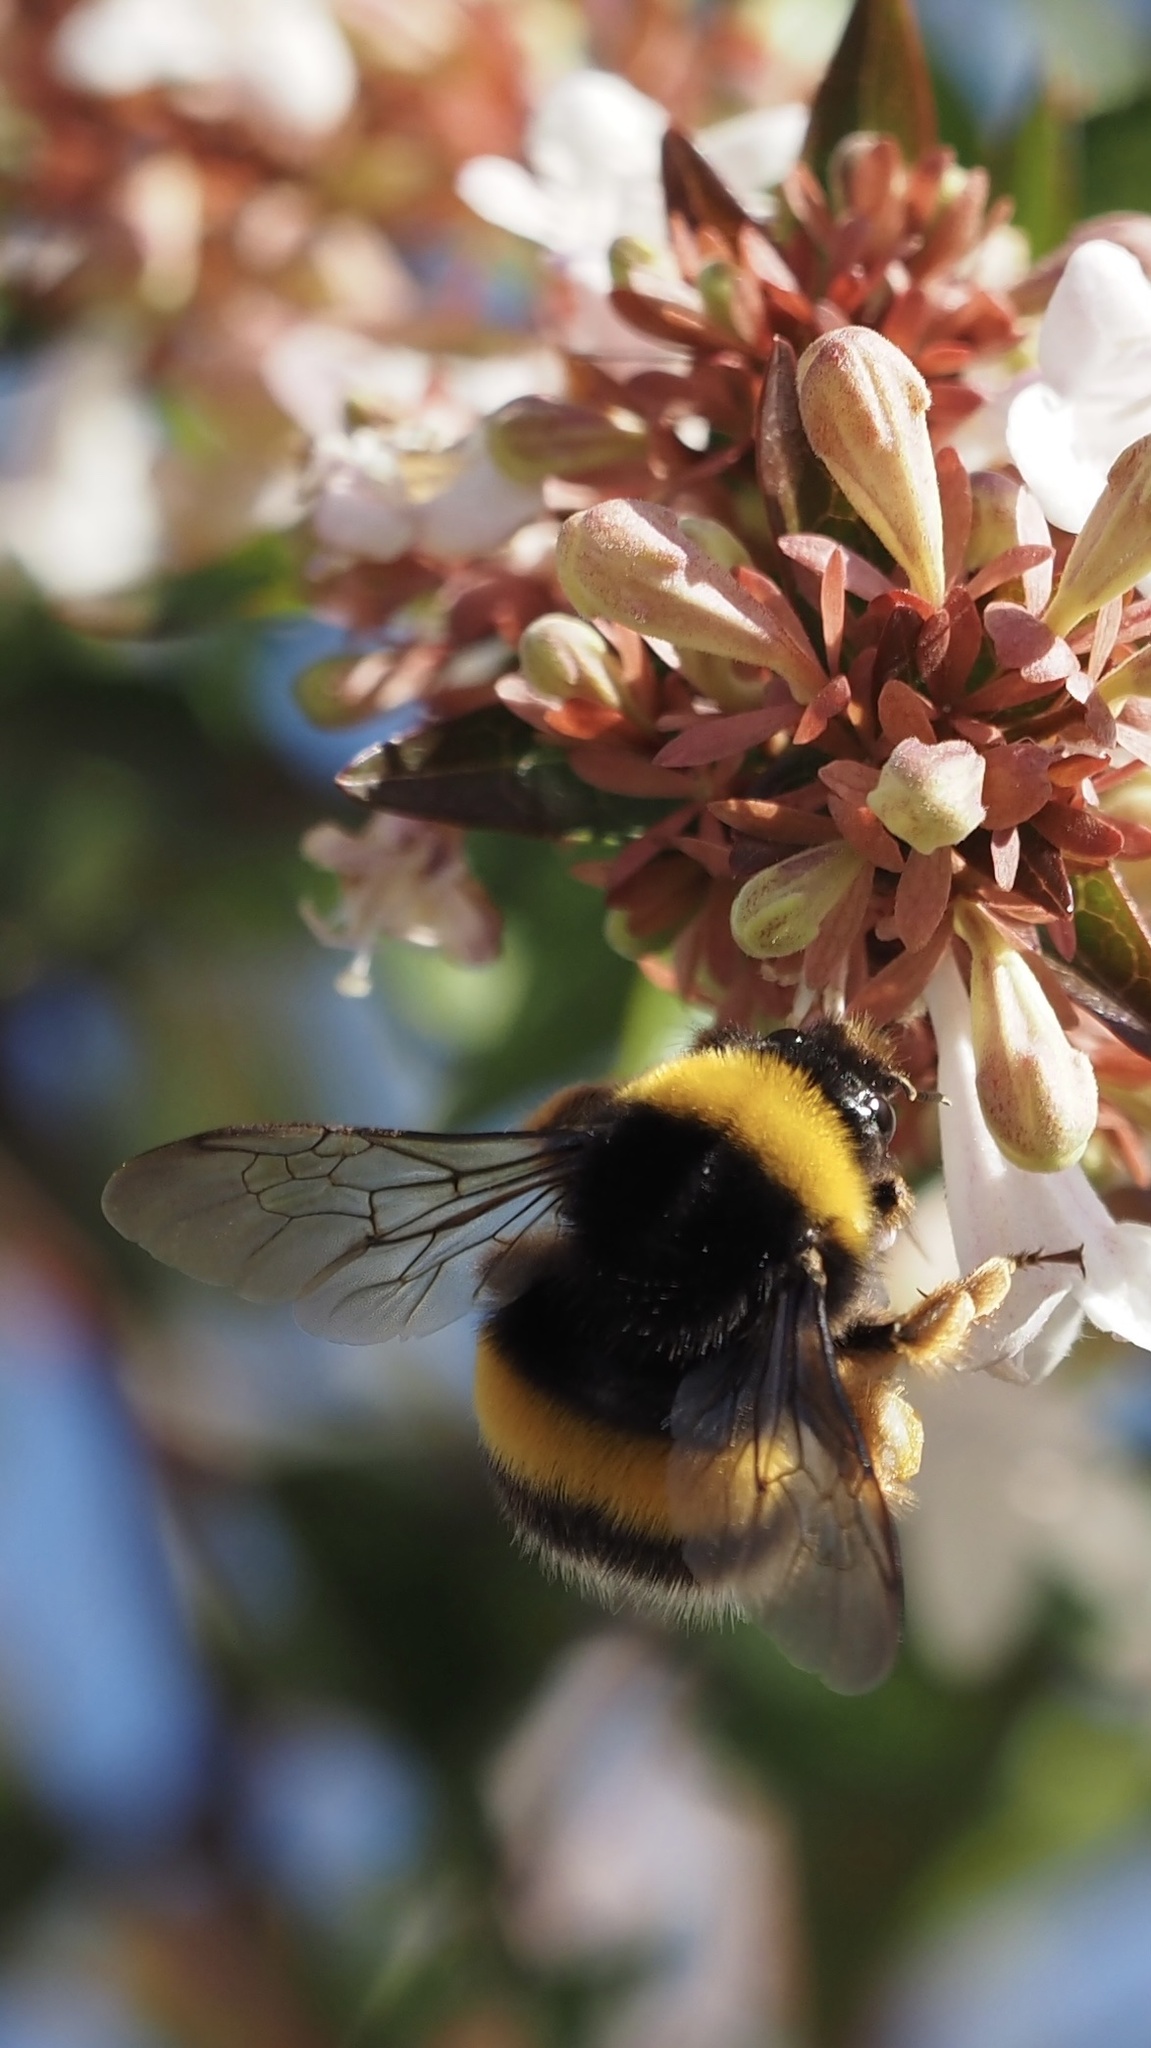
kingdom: Animalia
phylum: Arthropoda
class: Insecta
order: Hymenoptera
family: Apidae
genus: Bombus
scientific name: Bombus terrestris
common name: Buff-tailed bumblebee
